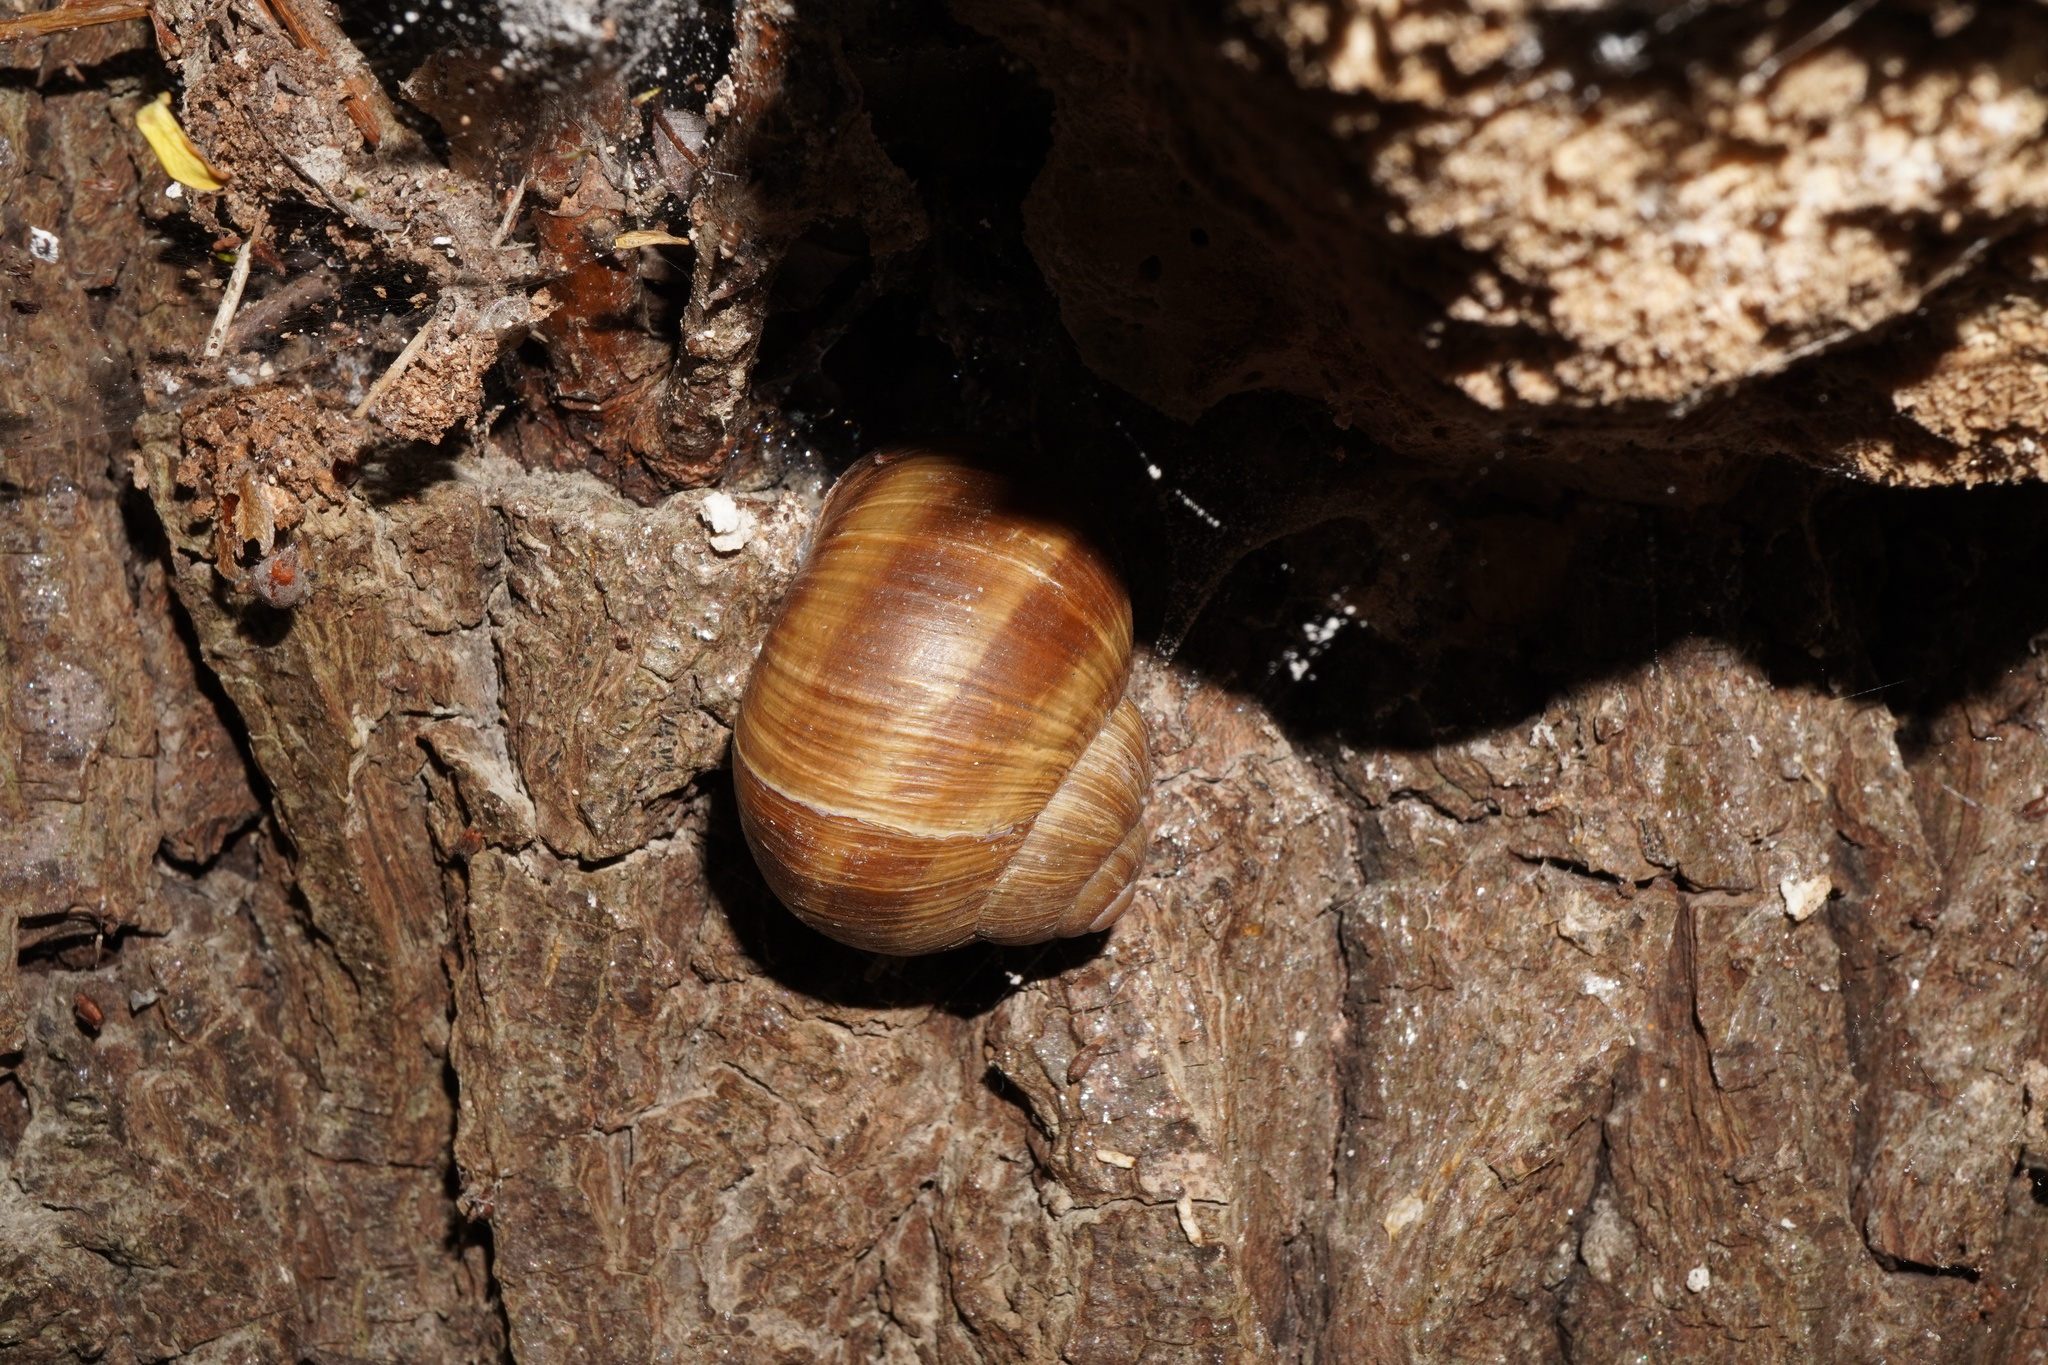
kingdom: Animalia
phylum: Mollusca
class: Gastropoda
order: Stylommatophora
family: Helicidae
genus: Helix
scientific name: Helix pomatia
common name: Roman snail
